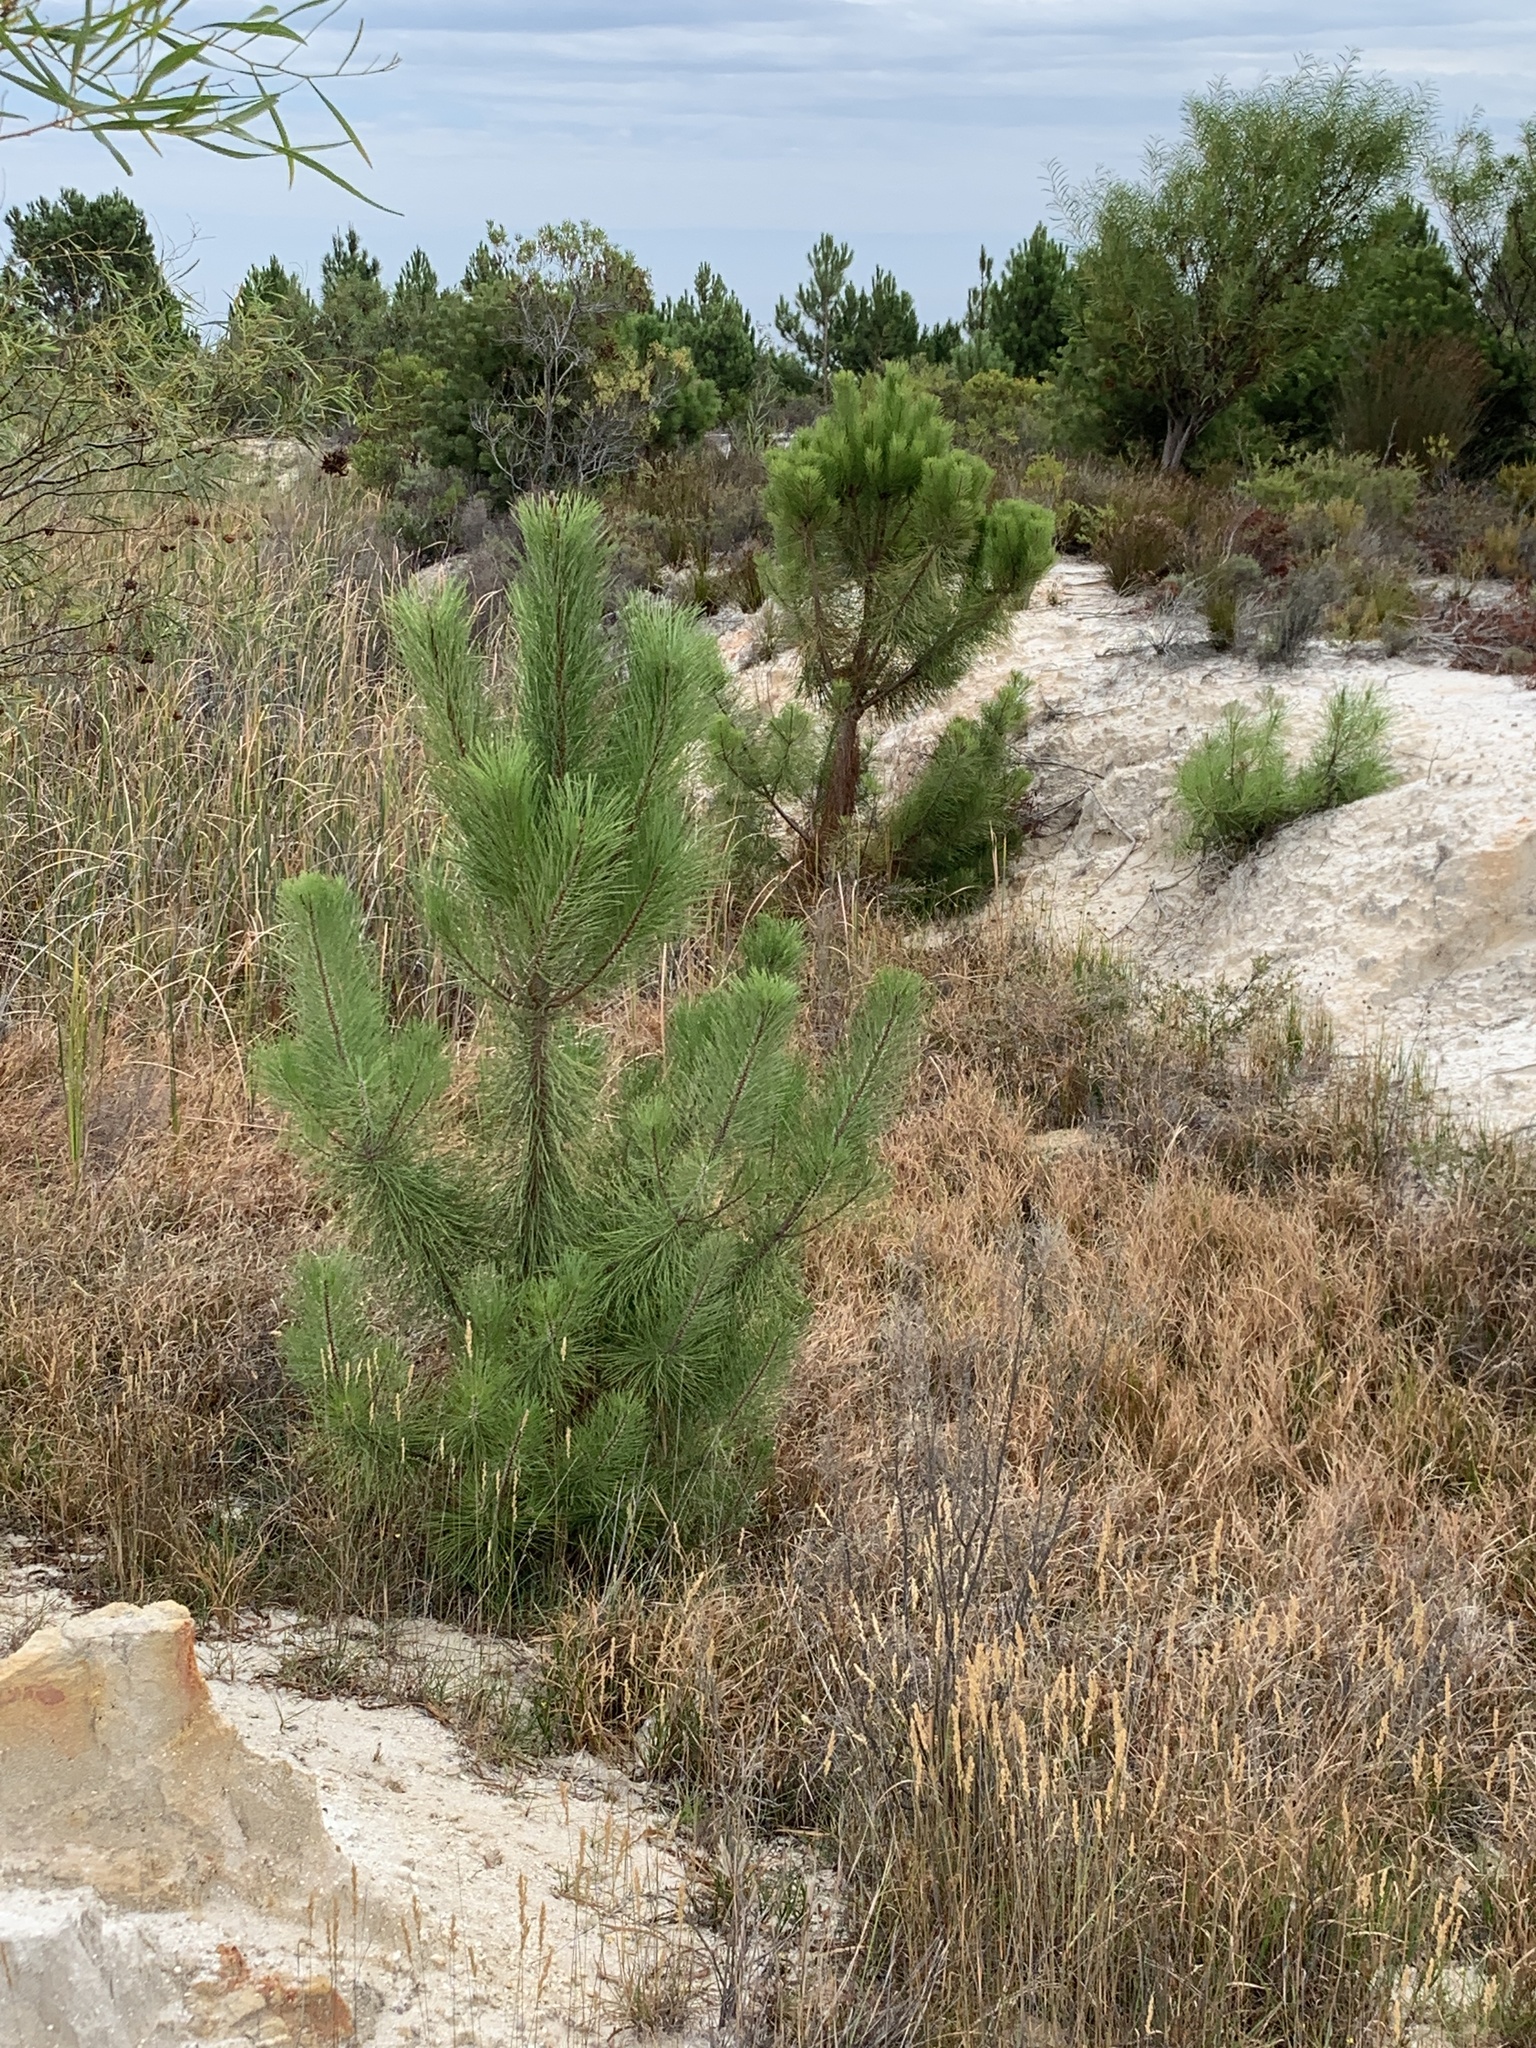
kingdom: Plantae
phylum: Tracheophyta
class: Pinopsida
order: Pinales
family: Pinaceae
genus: Pinus
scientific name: Pinus pinaster
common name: Maritime pine
